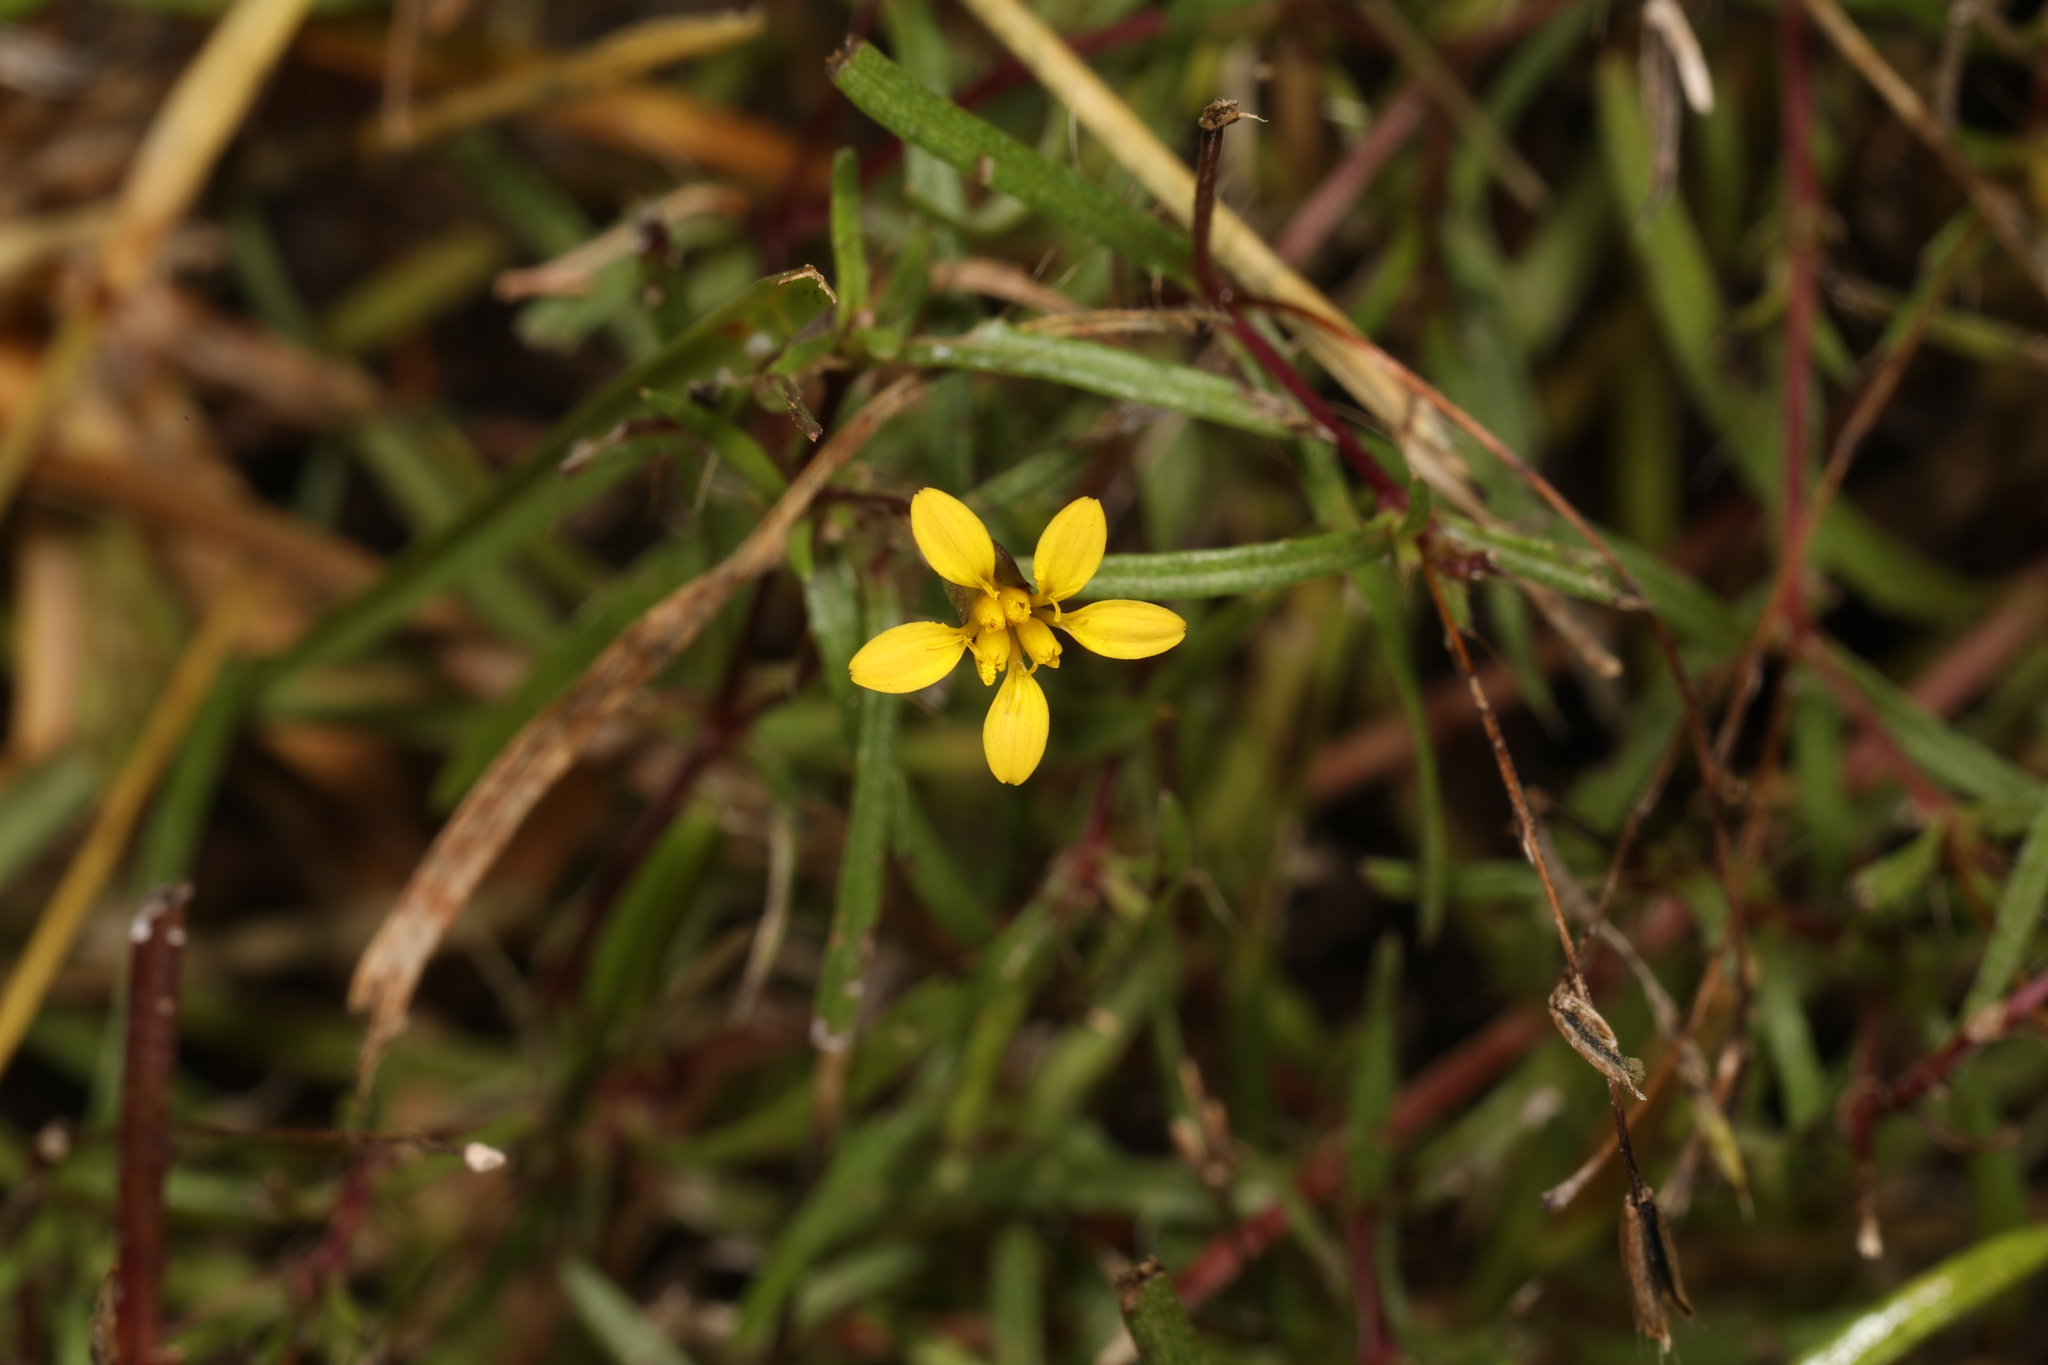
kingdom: Plantae
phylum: Tracheophyta
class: Magnoliopsida
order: Asterales
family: Asteraceae
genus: Pectis
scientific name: Pectis glaucescens
